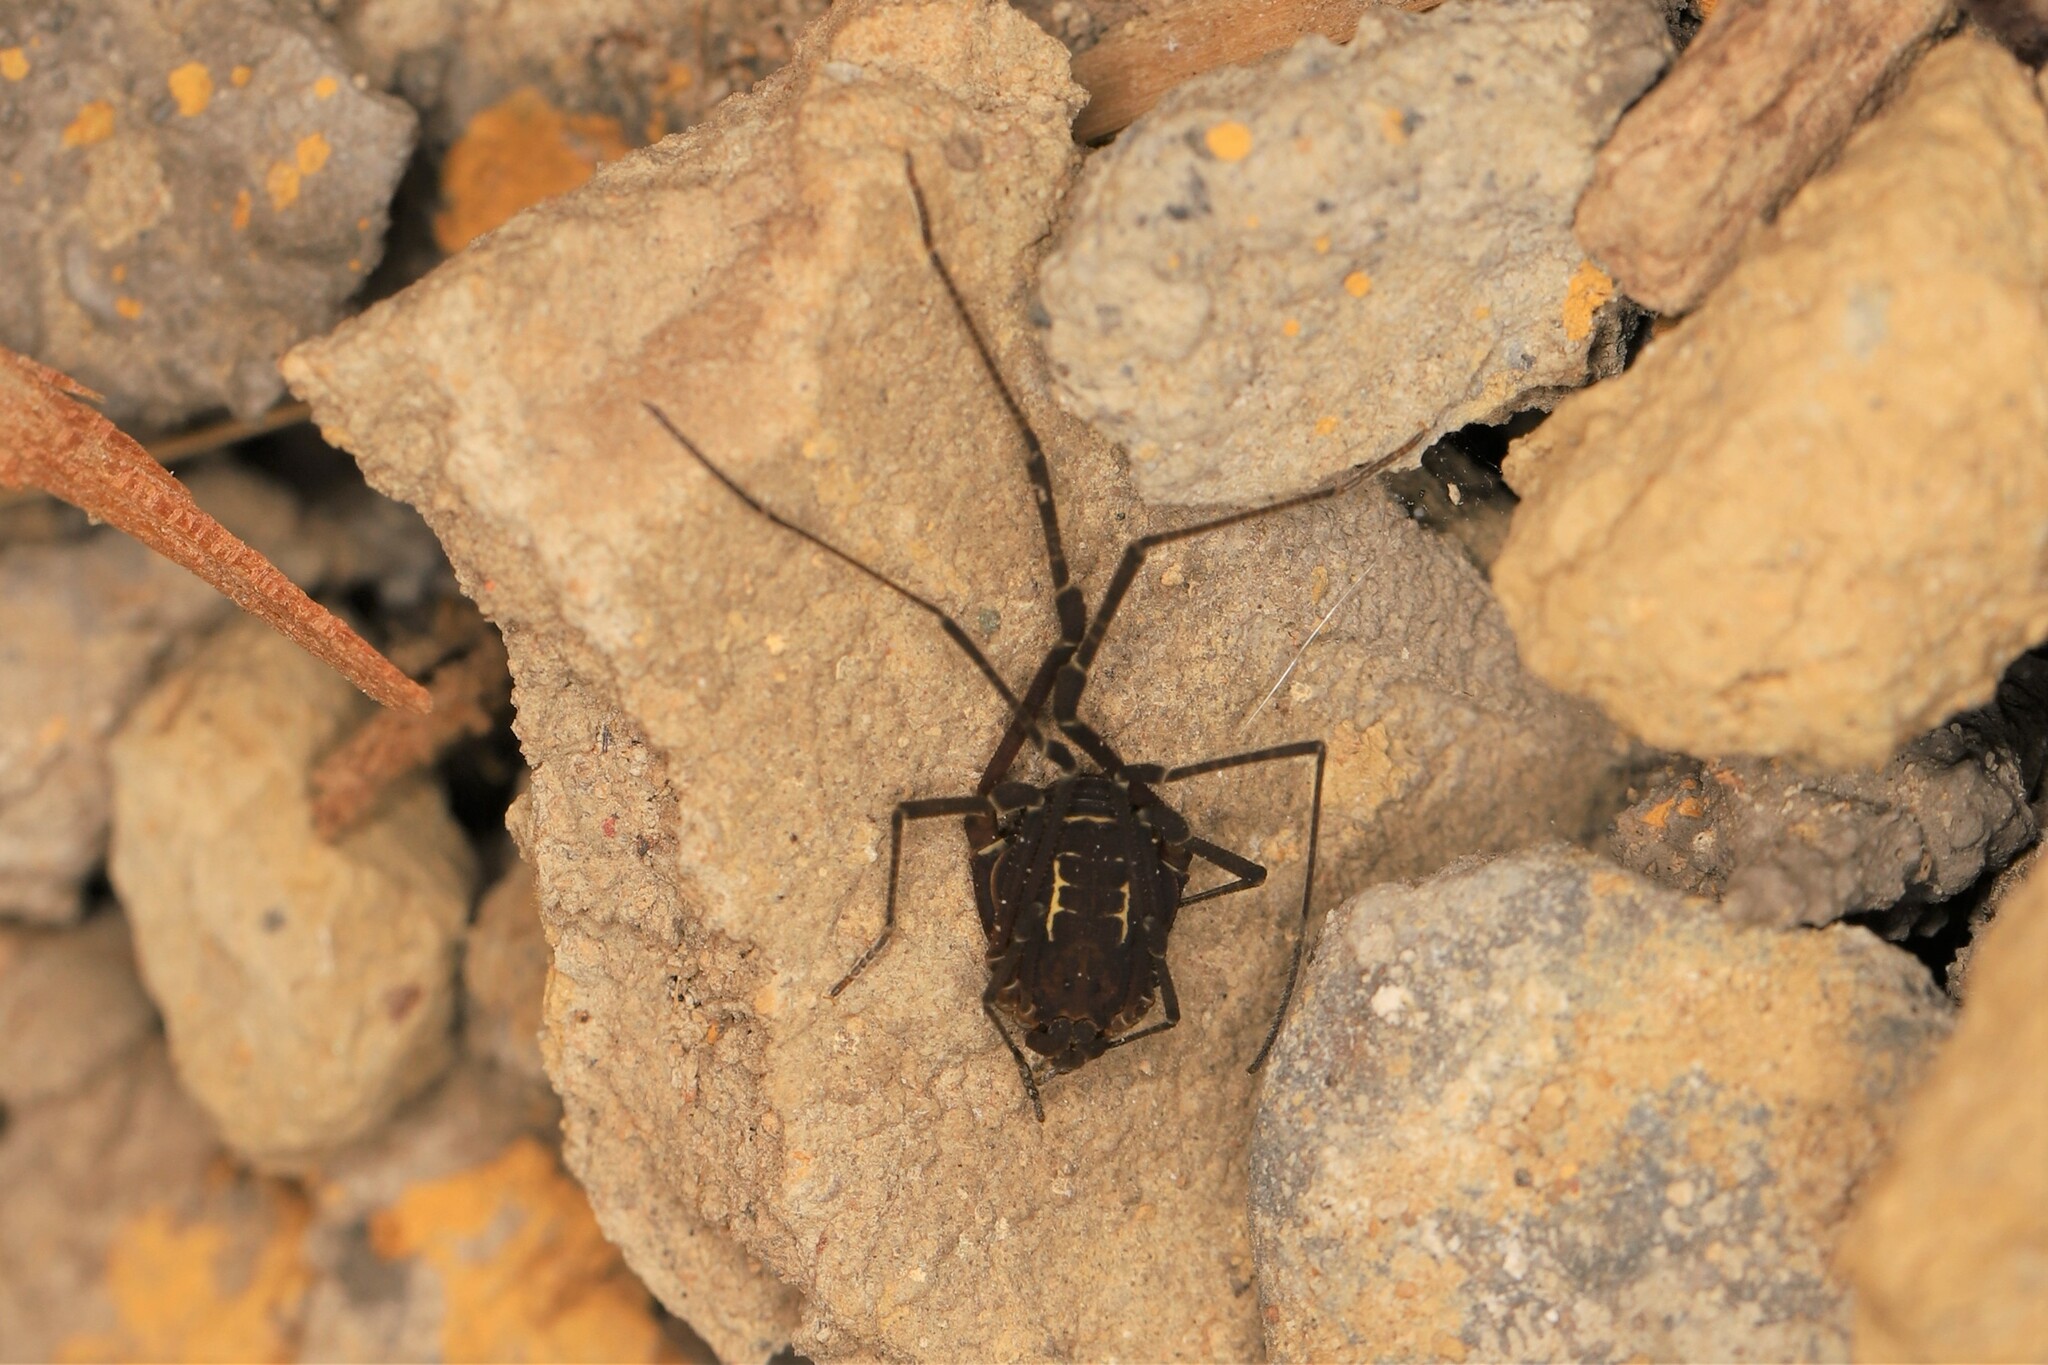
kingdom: Animalia
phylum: Arthropoda
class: Arachnida
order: Opiliones
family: Cosmetidae
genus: Eulibitia
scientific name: Eulibitia scalaris
